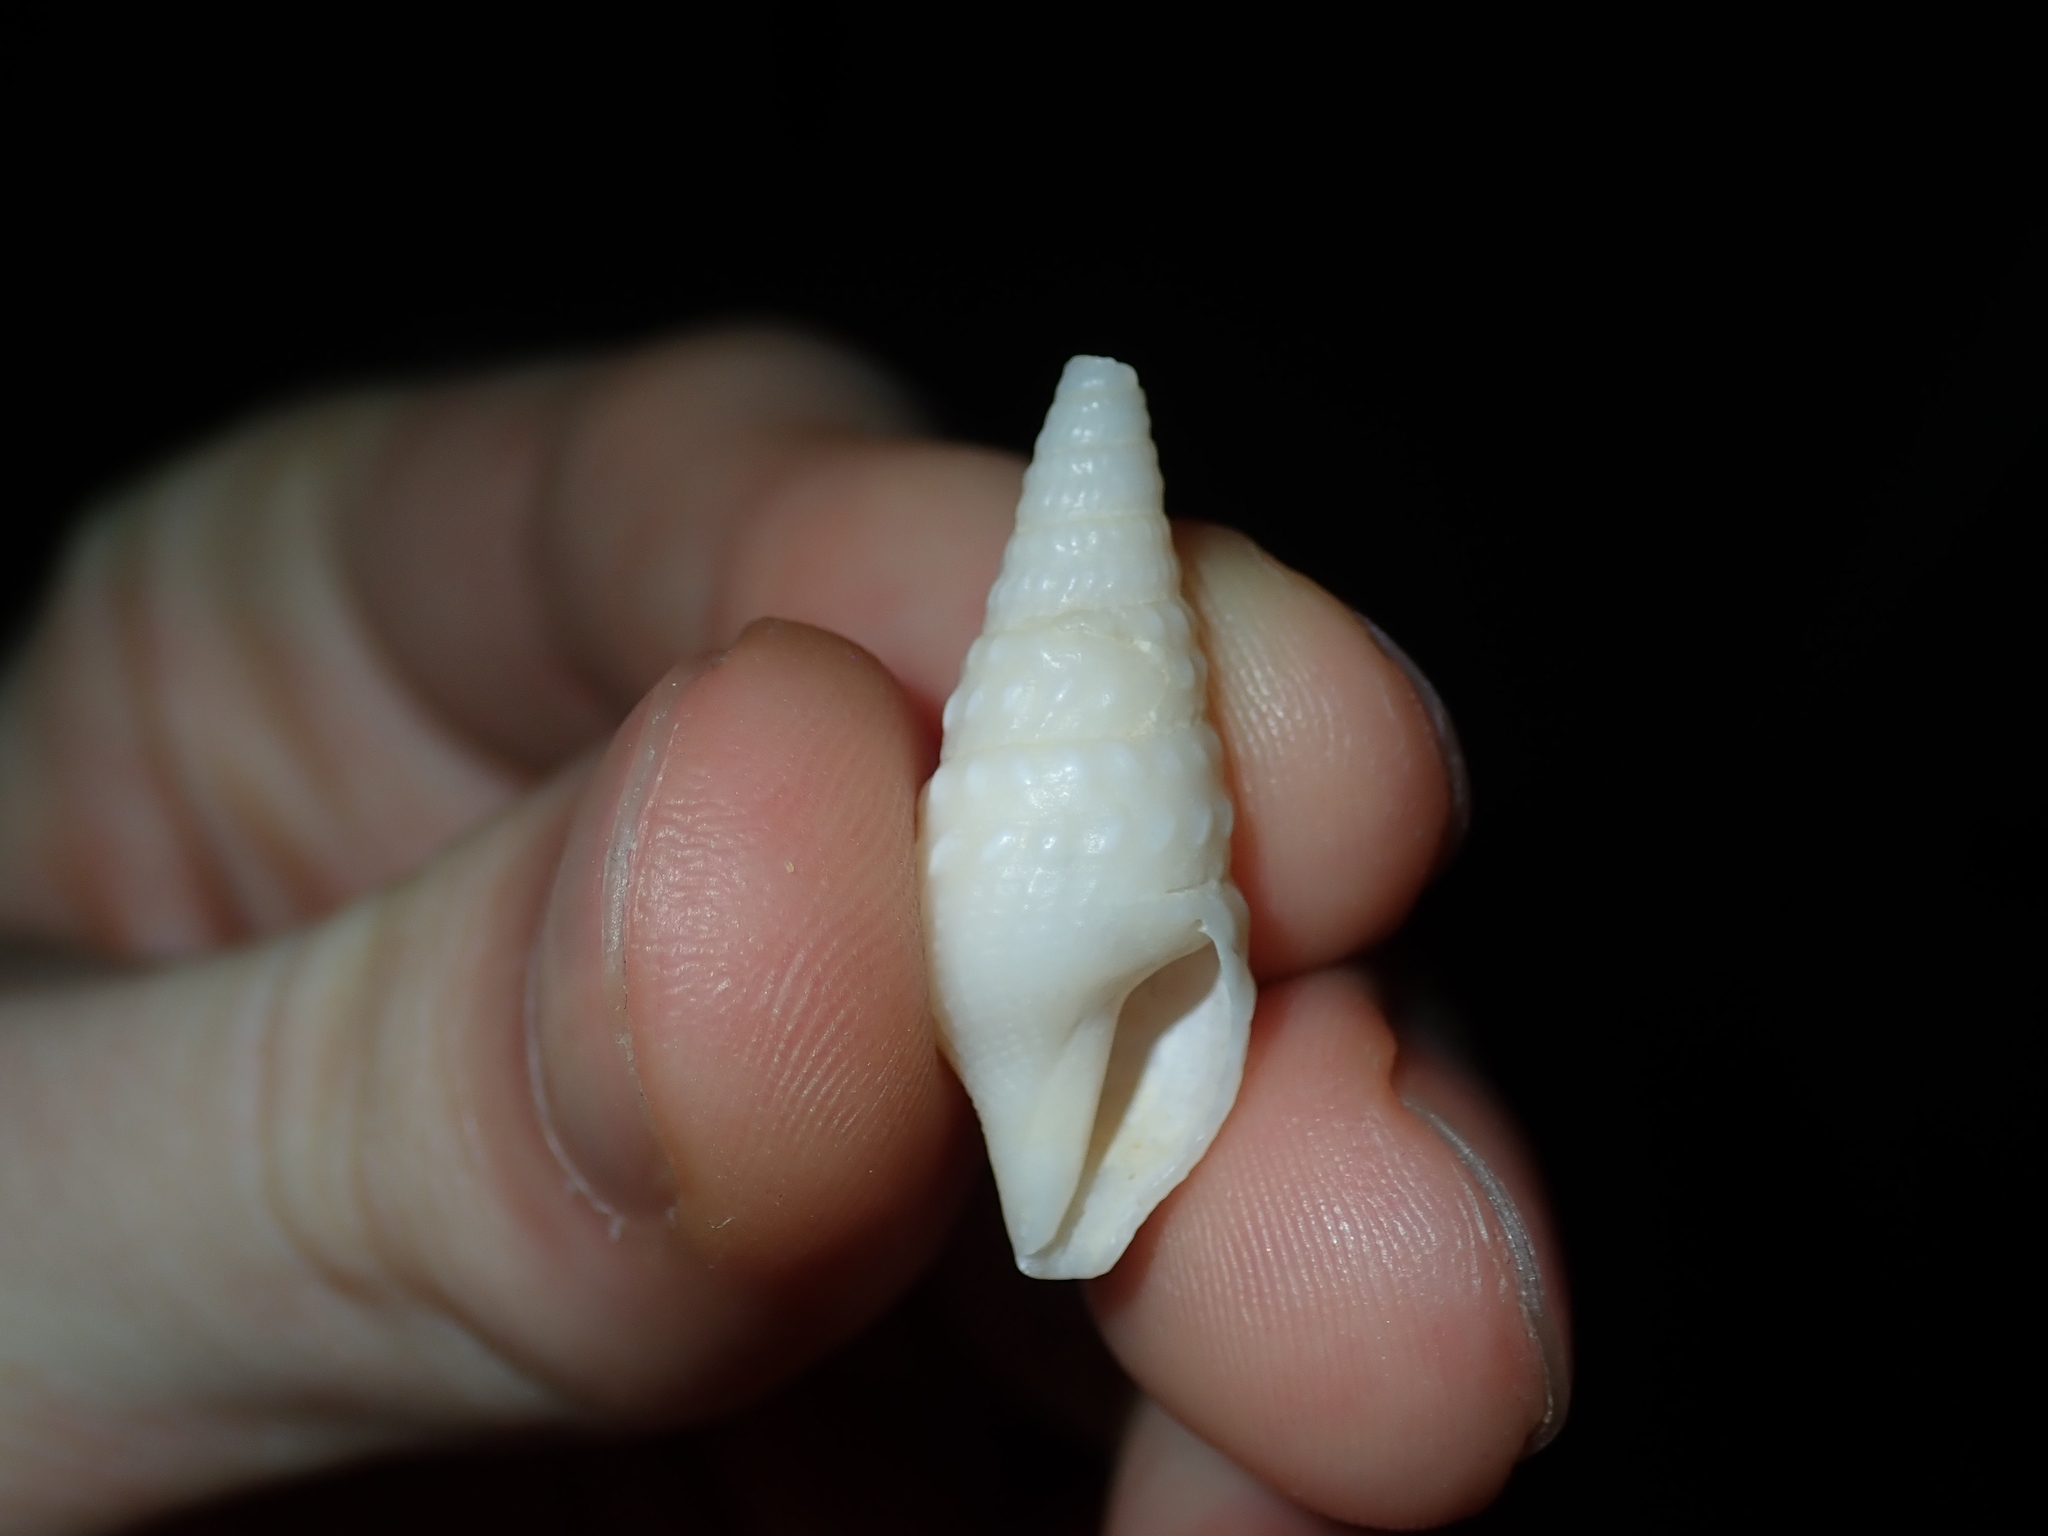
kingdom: Animalia
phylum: Mollusca
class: Gastropoda
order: Neogastropoda
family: Horaiclavidae
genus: Epideira
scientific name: Epideira hedleyi
